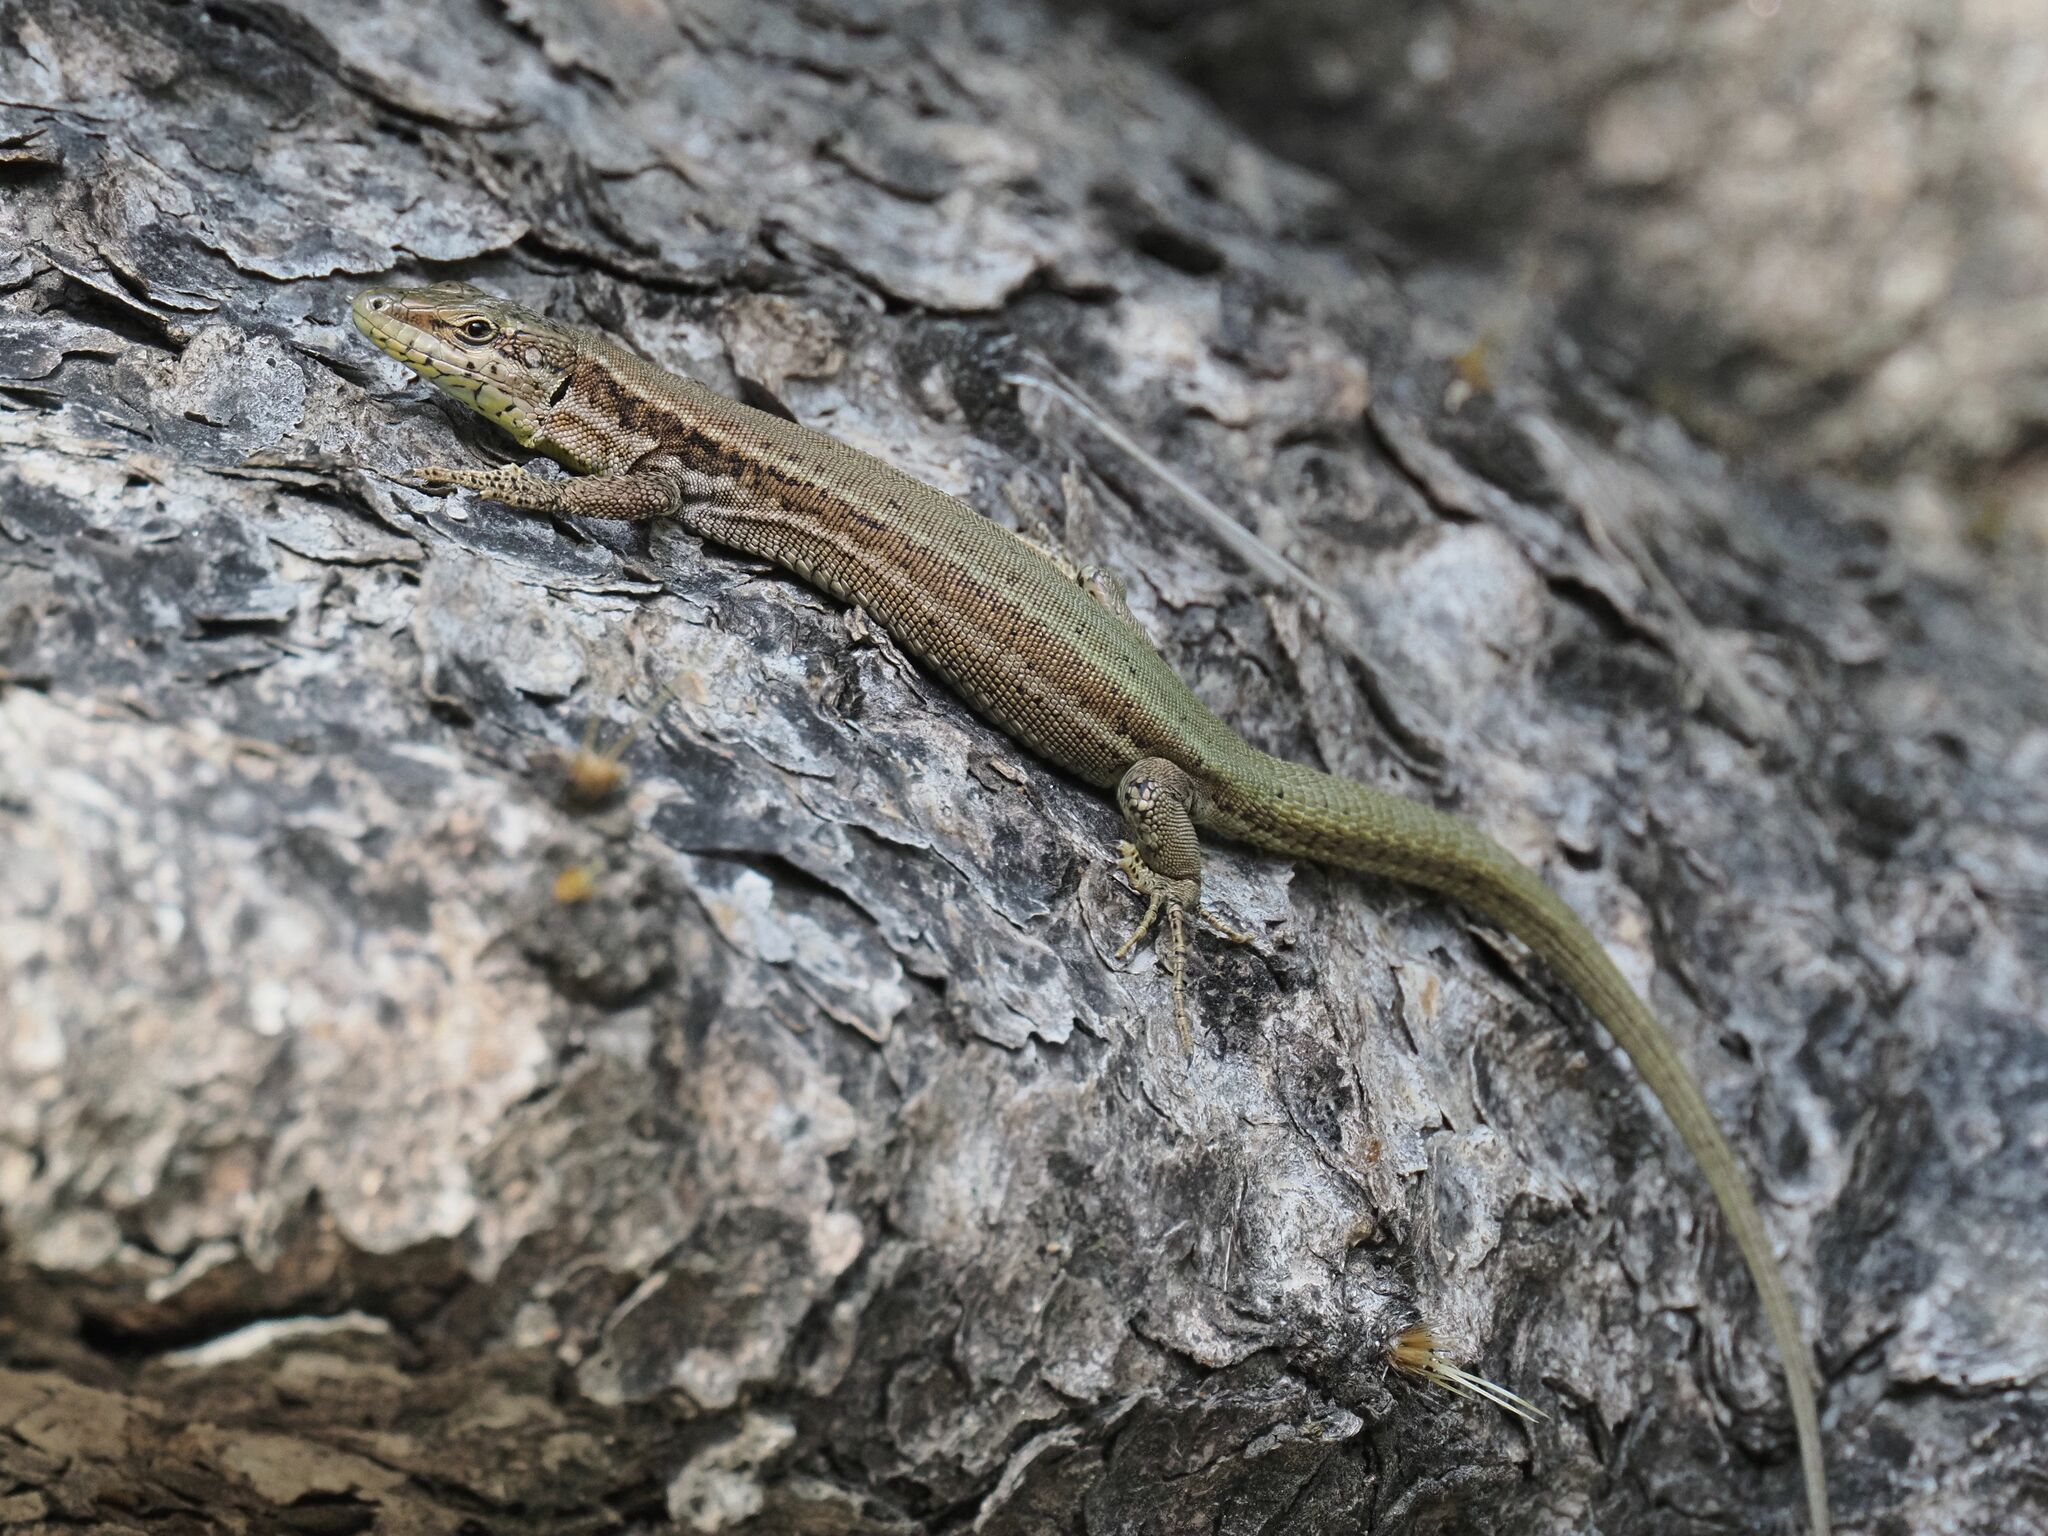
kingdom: Animalia
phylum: Chordata
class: Squamata
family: Lacertidae
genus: Podarcis
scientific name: Podarcis virescens
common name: Geniez’s wall lizard
